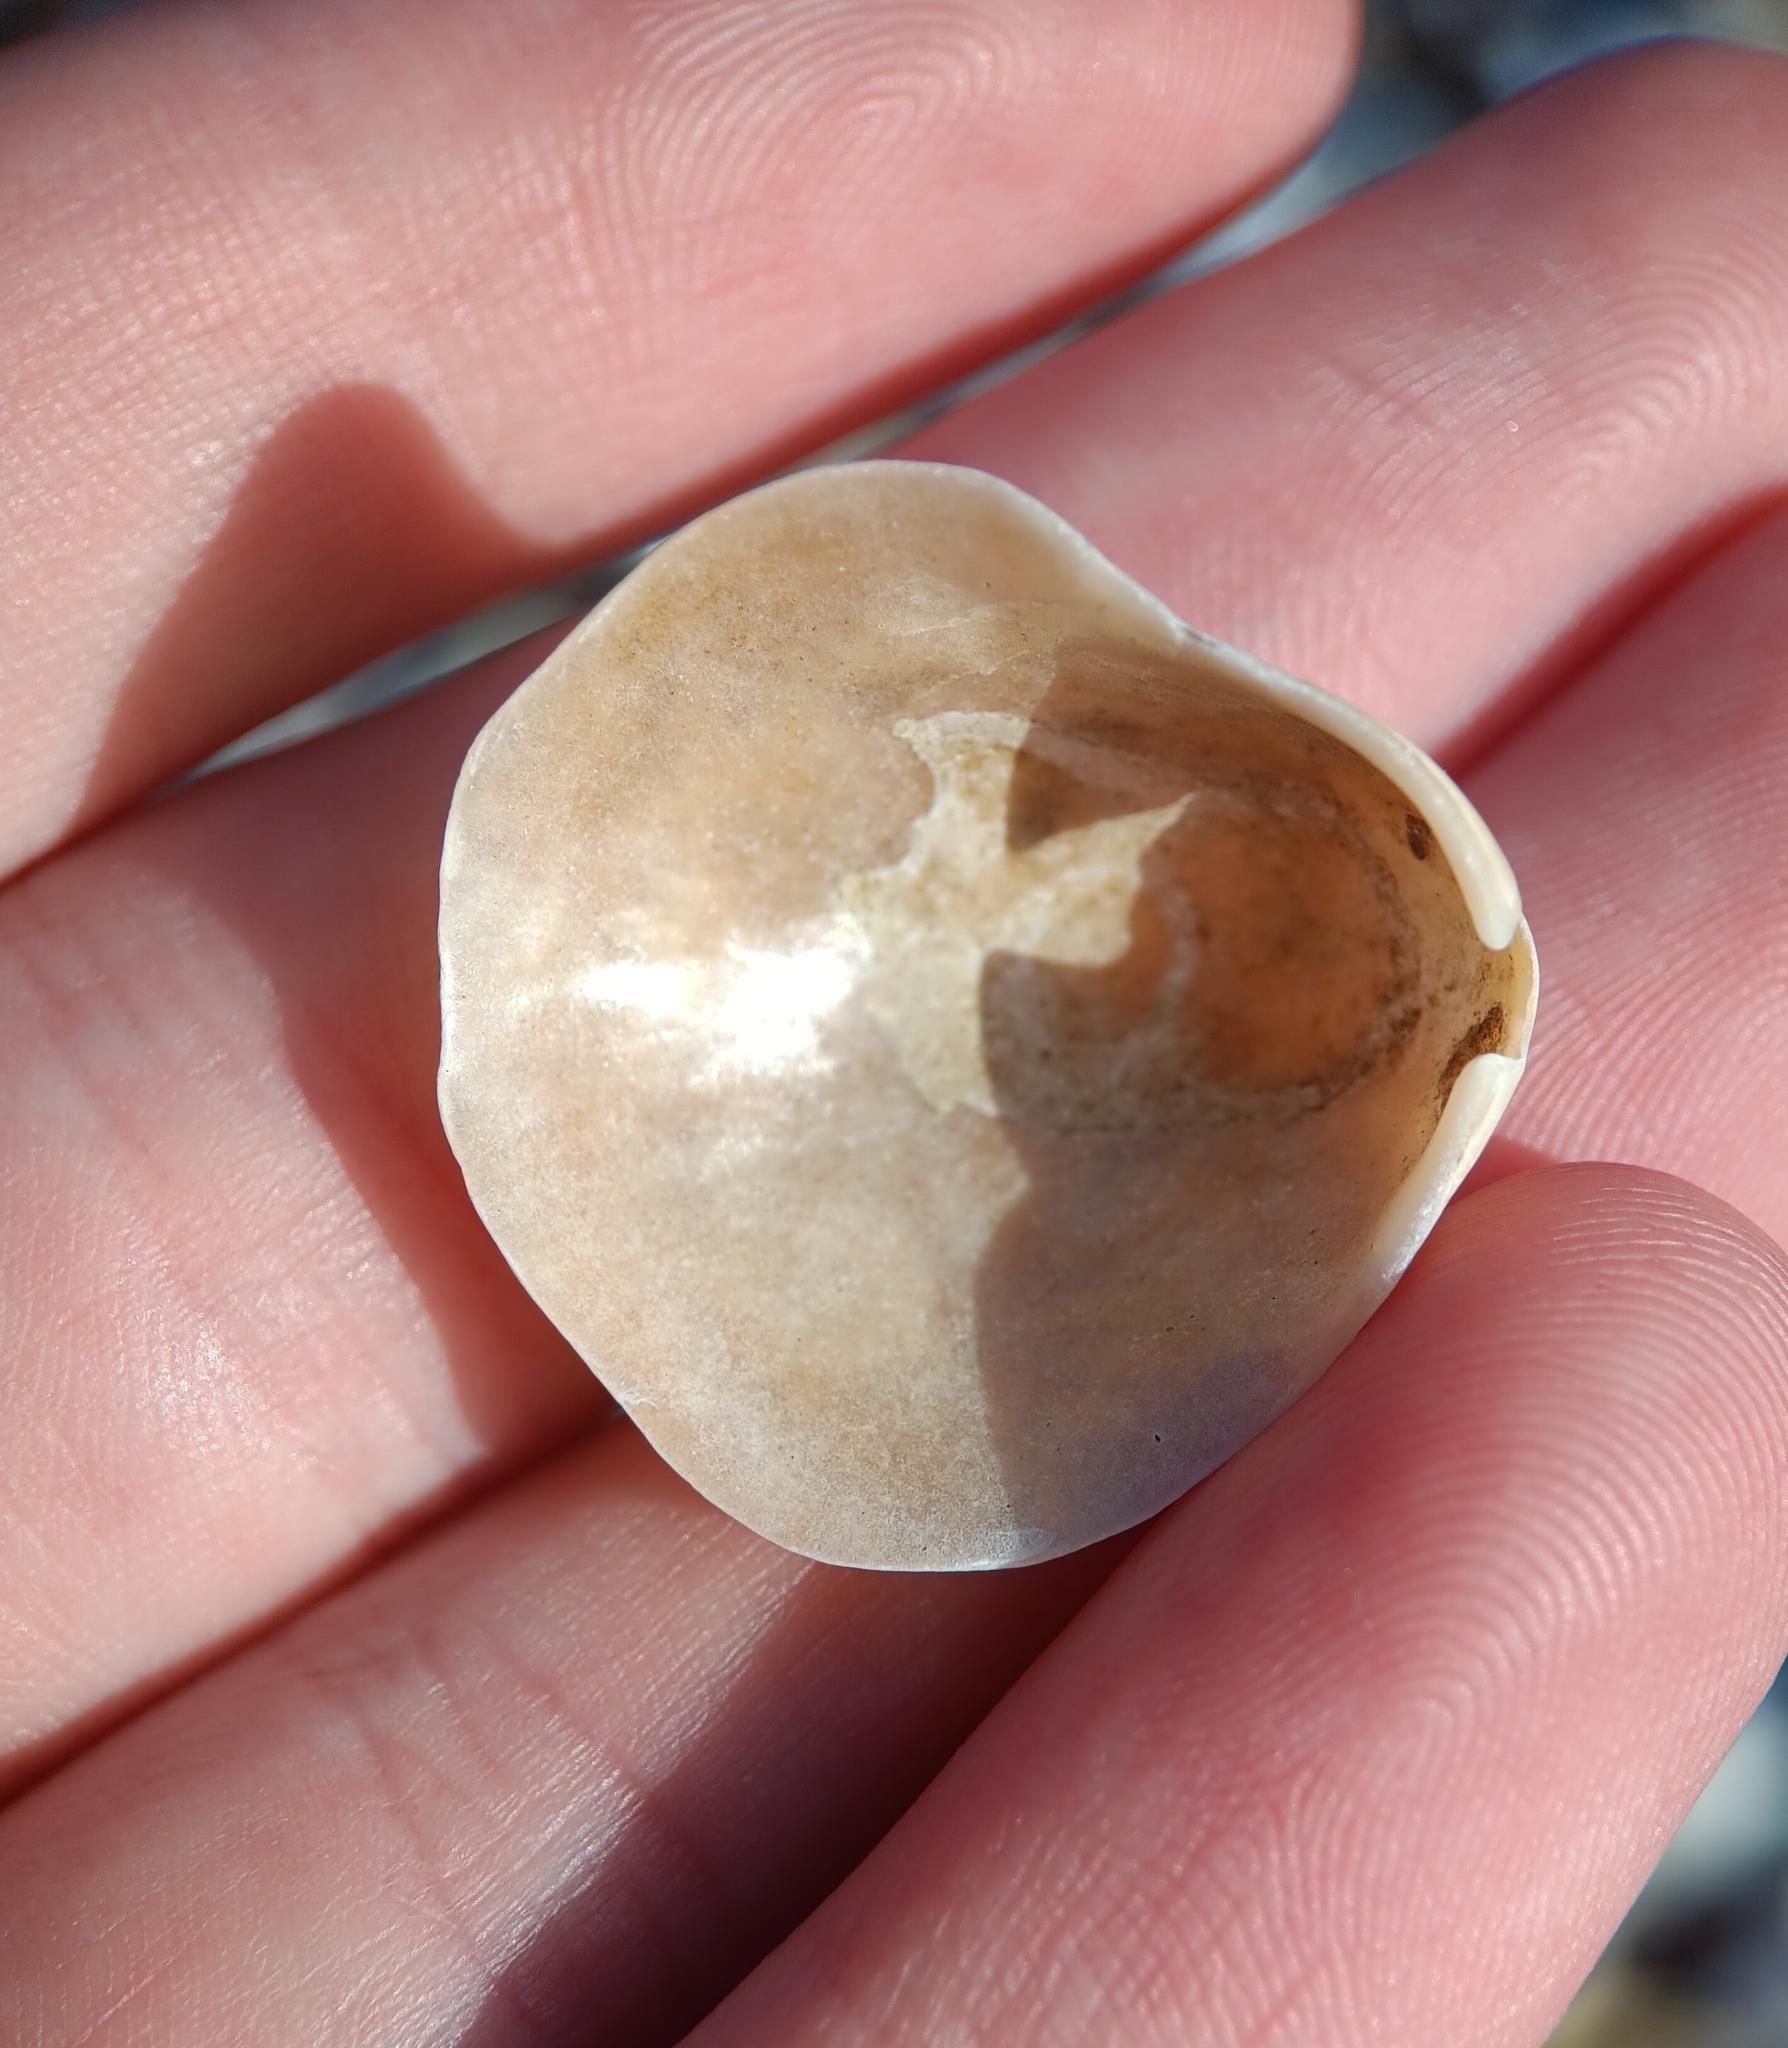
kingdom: Animalia
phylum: Mollusca
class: Bivalvia
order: Pectinida
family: Anomiidae
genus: Anomia
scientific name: Anomia simplex
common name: Common jingle shell
